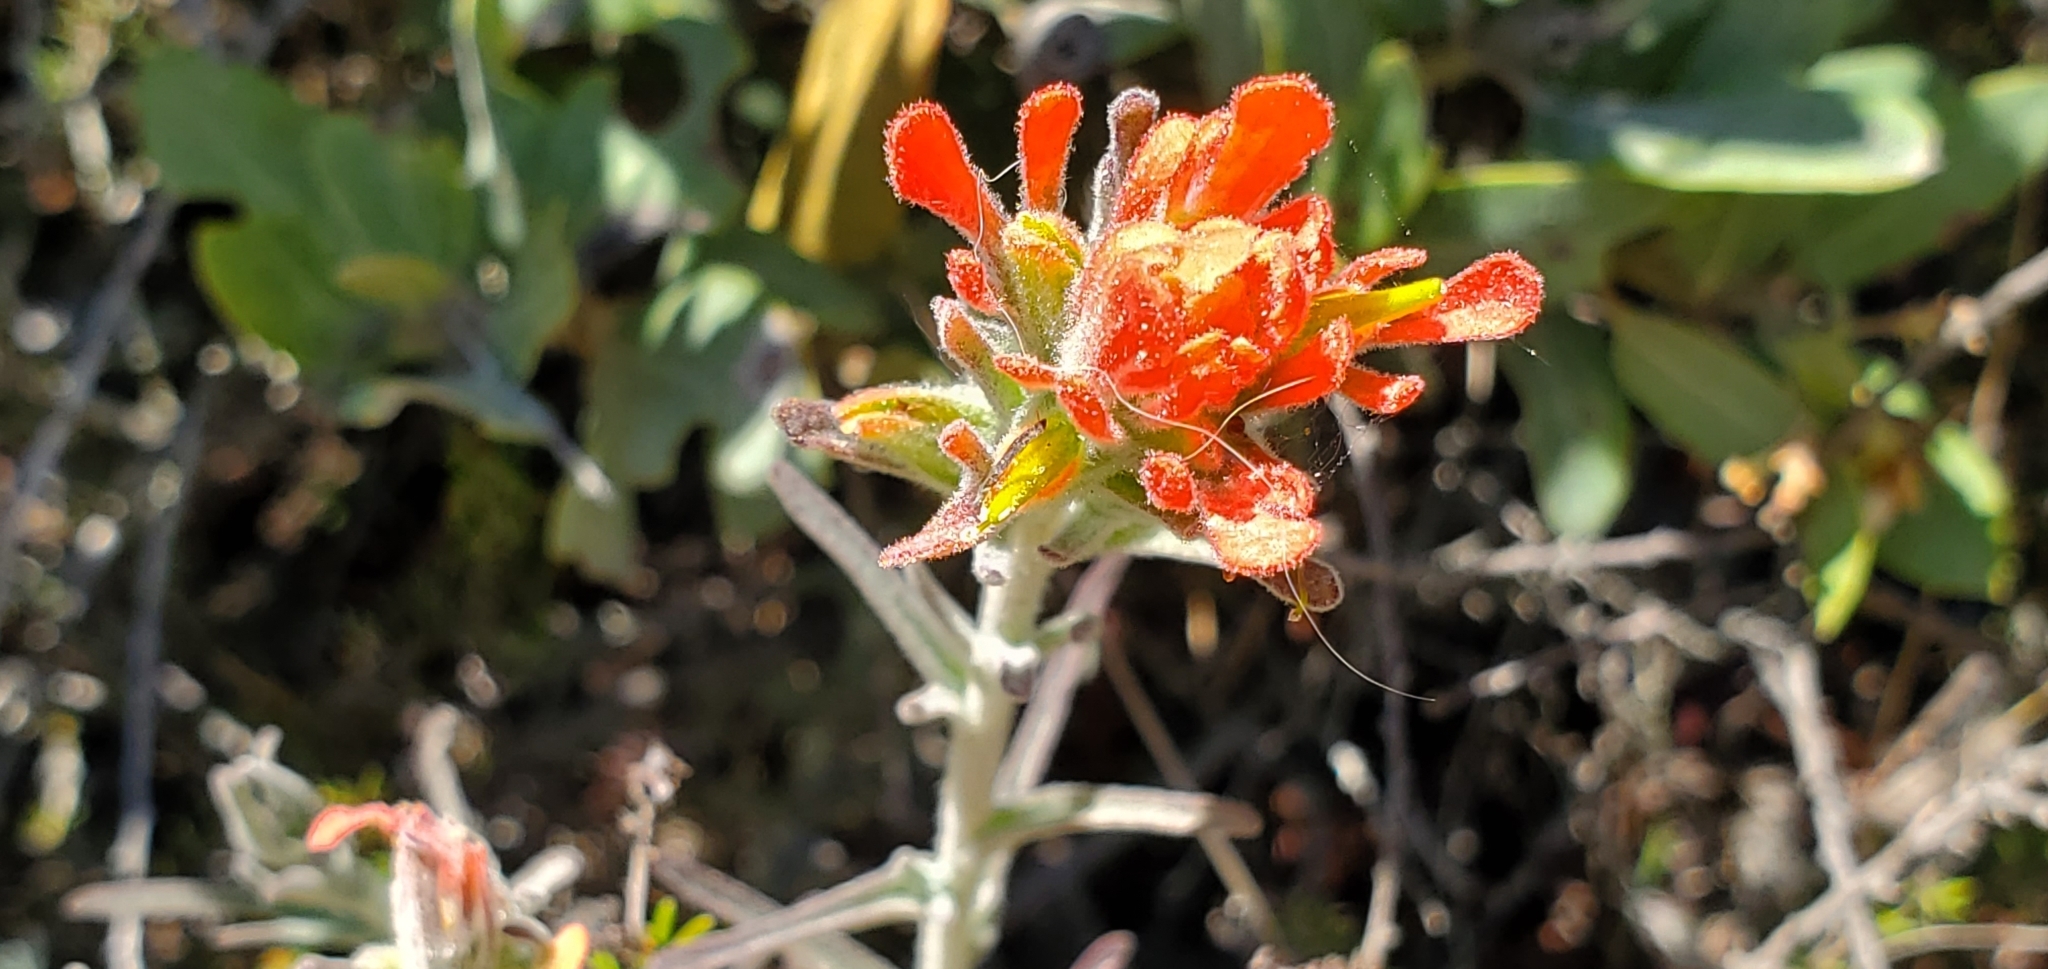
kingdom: Plantae
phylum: Tracheophyta
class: Magnoliopsida
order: Lamiales
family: Orobanchaceae
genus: Castilleja
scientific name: Castilleja foliolosa
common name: Woolly indian paintbrush
